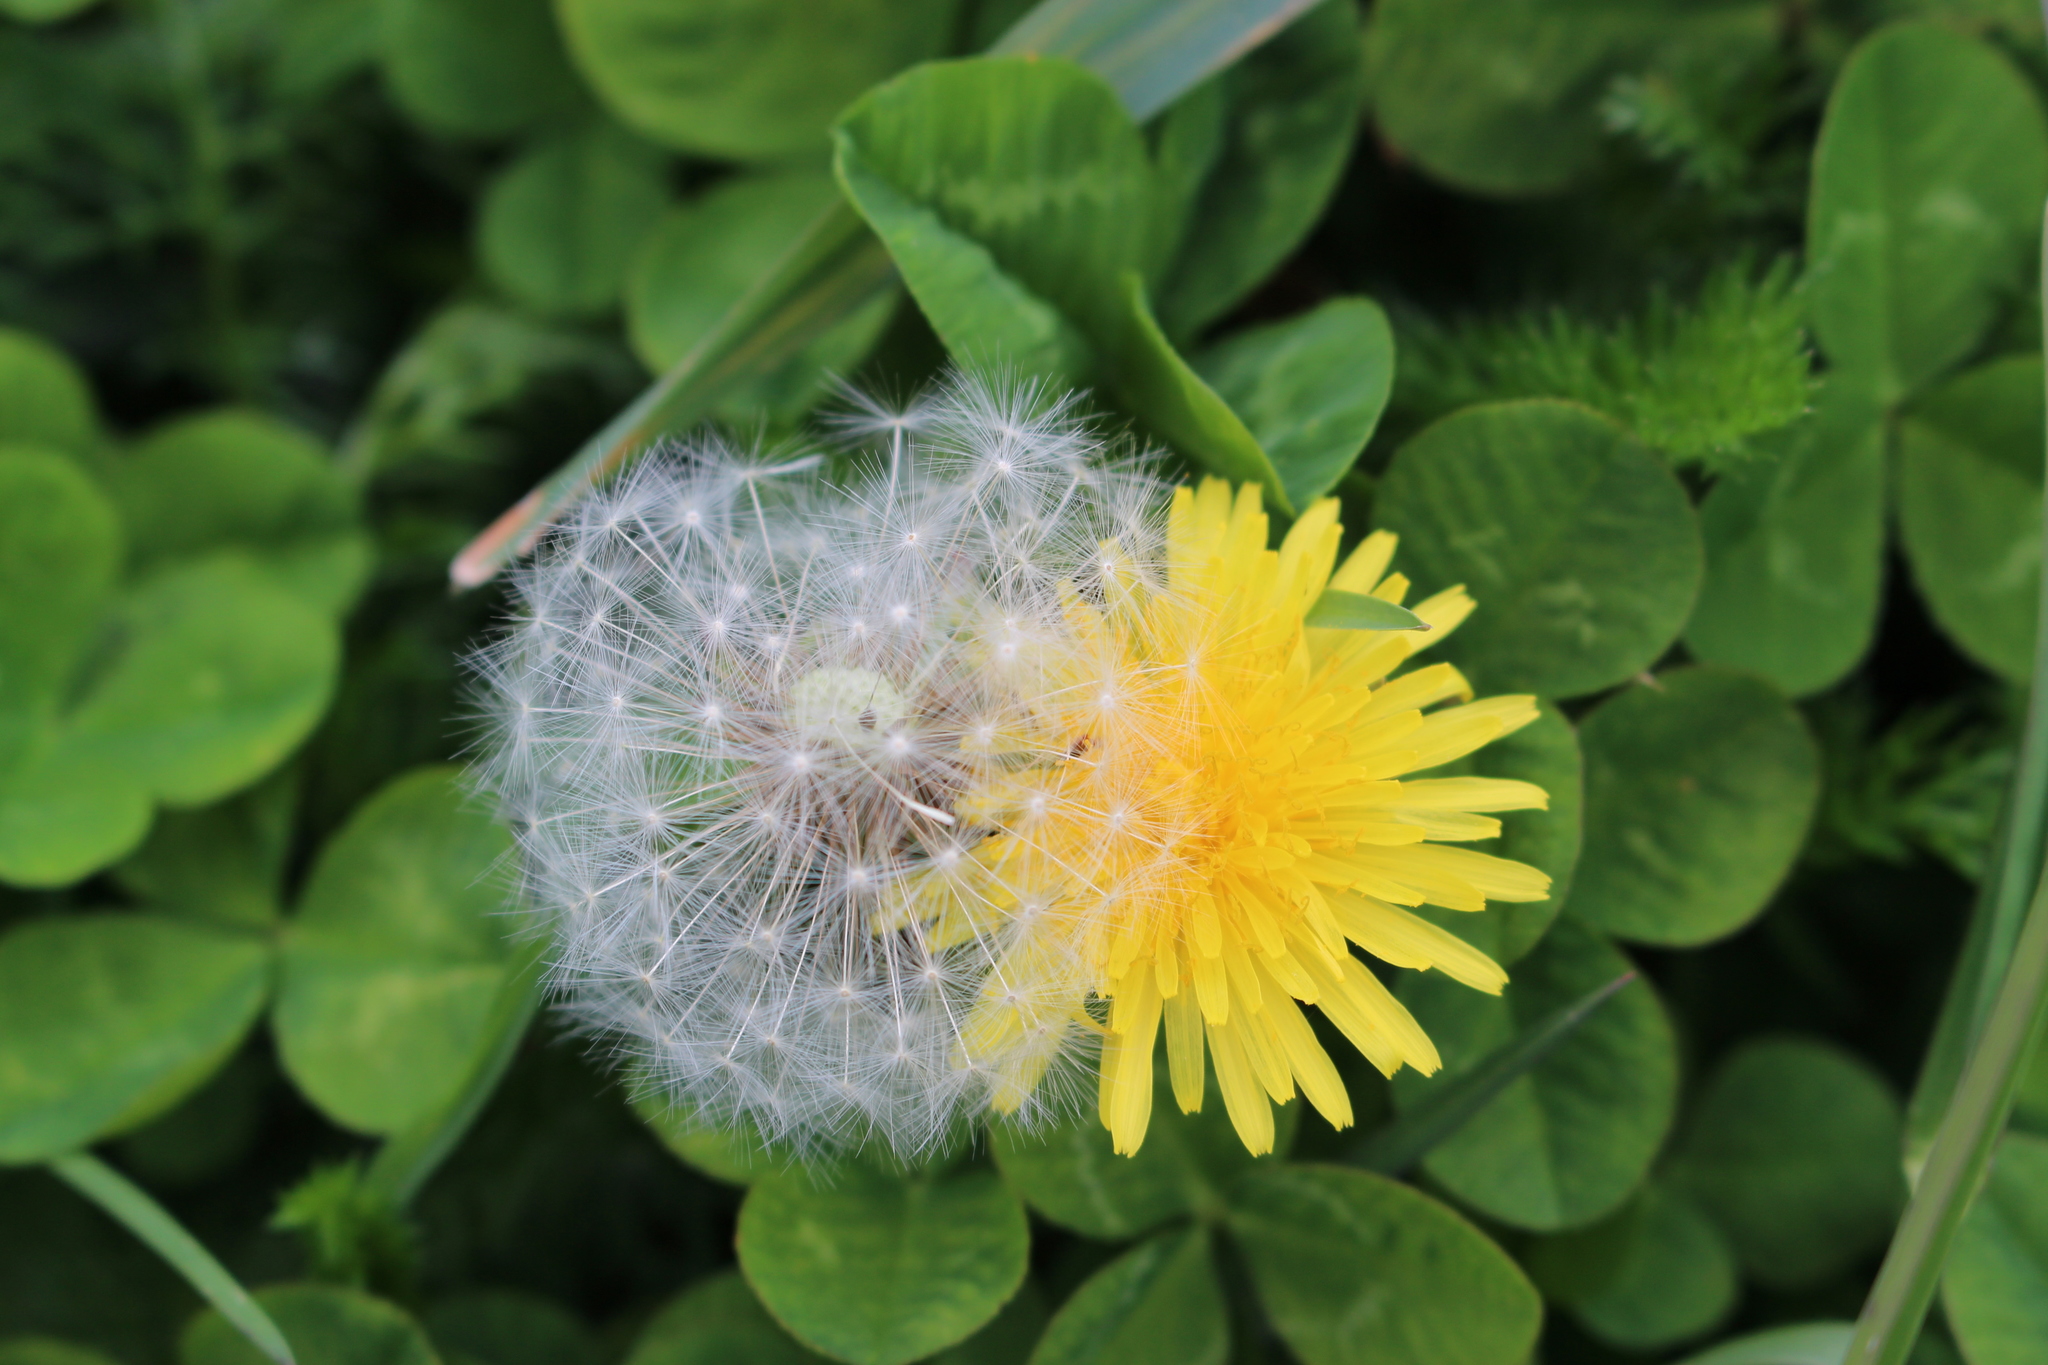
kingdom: Plantae
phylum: Tracheophyta
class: Magnoliopsida
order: Asterales
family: Asteraceae
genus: Taraxacum
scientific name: Taraxacum officinale
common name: Common dandelion
